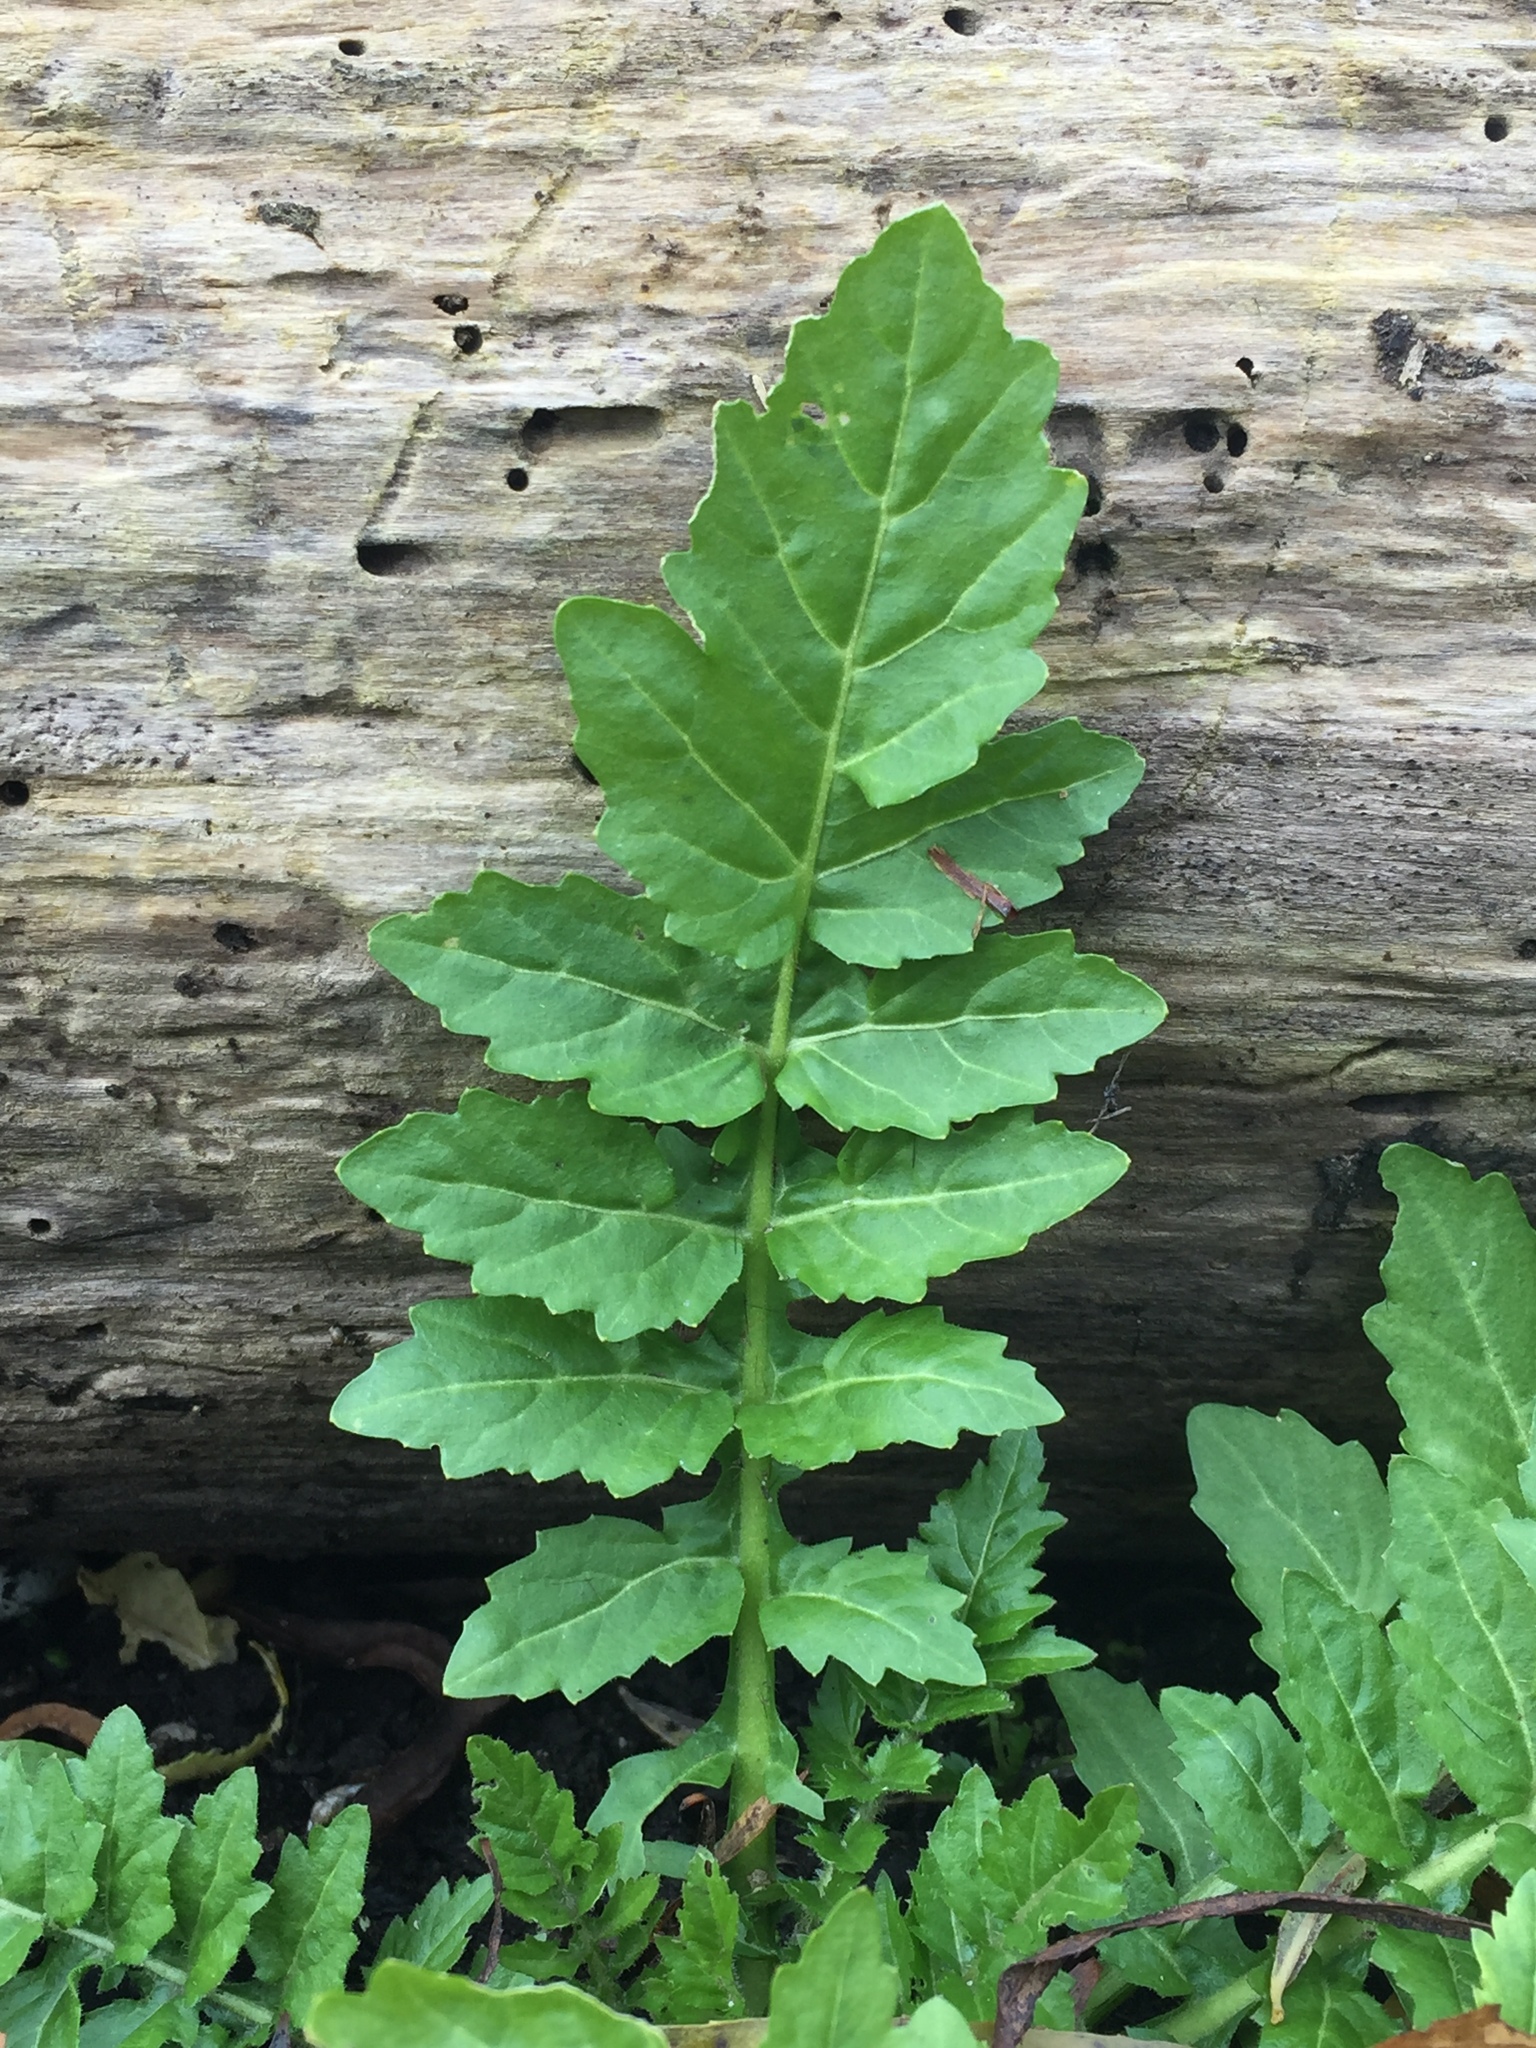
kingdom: Plantae
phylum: Tracheophyta
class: Magnoliopsida
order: Apiales
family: Apiaceae
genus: Pastinaca
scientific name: Pastinaca sativa
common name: Wild parsnip
